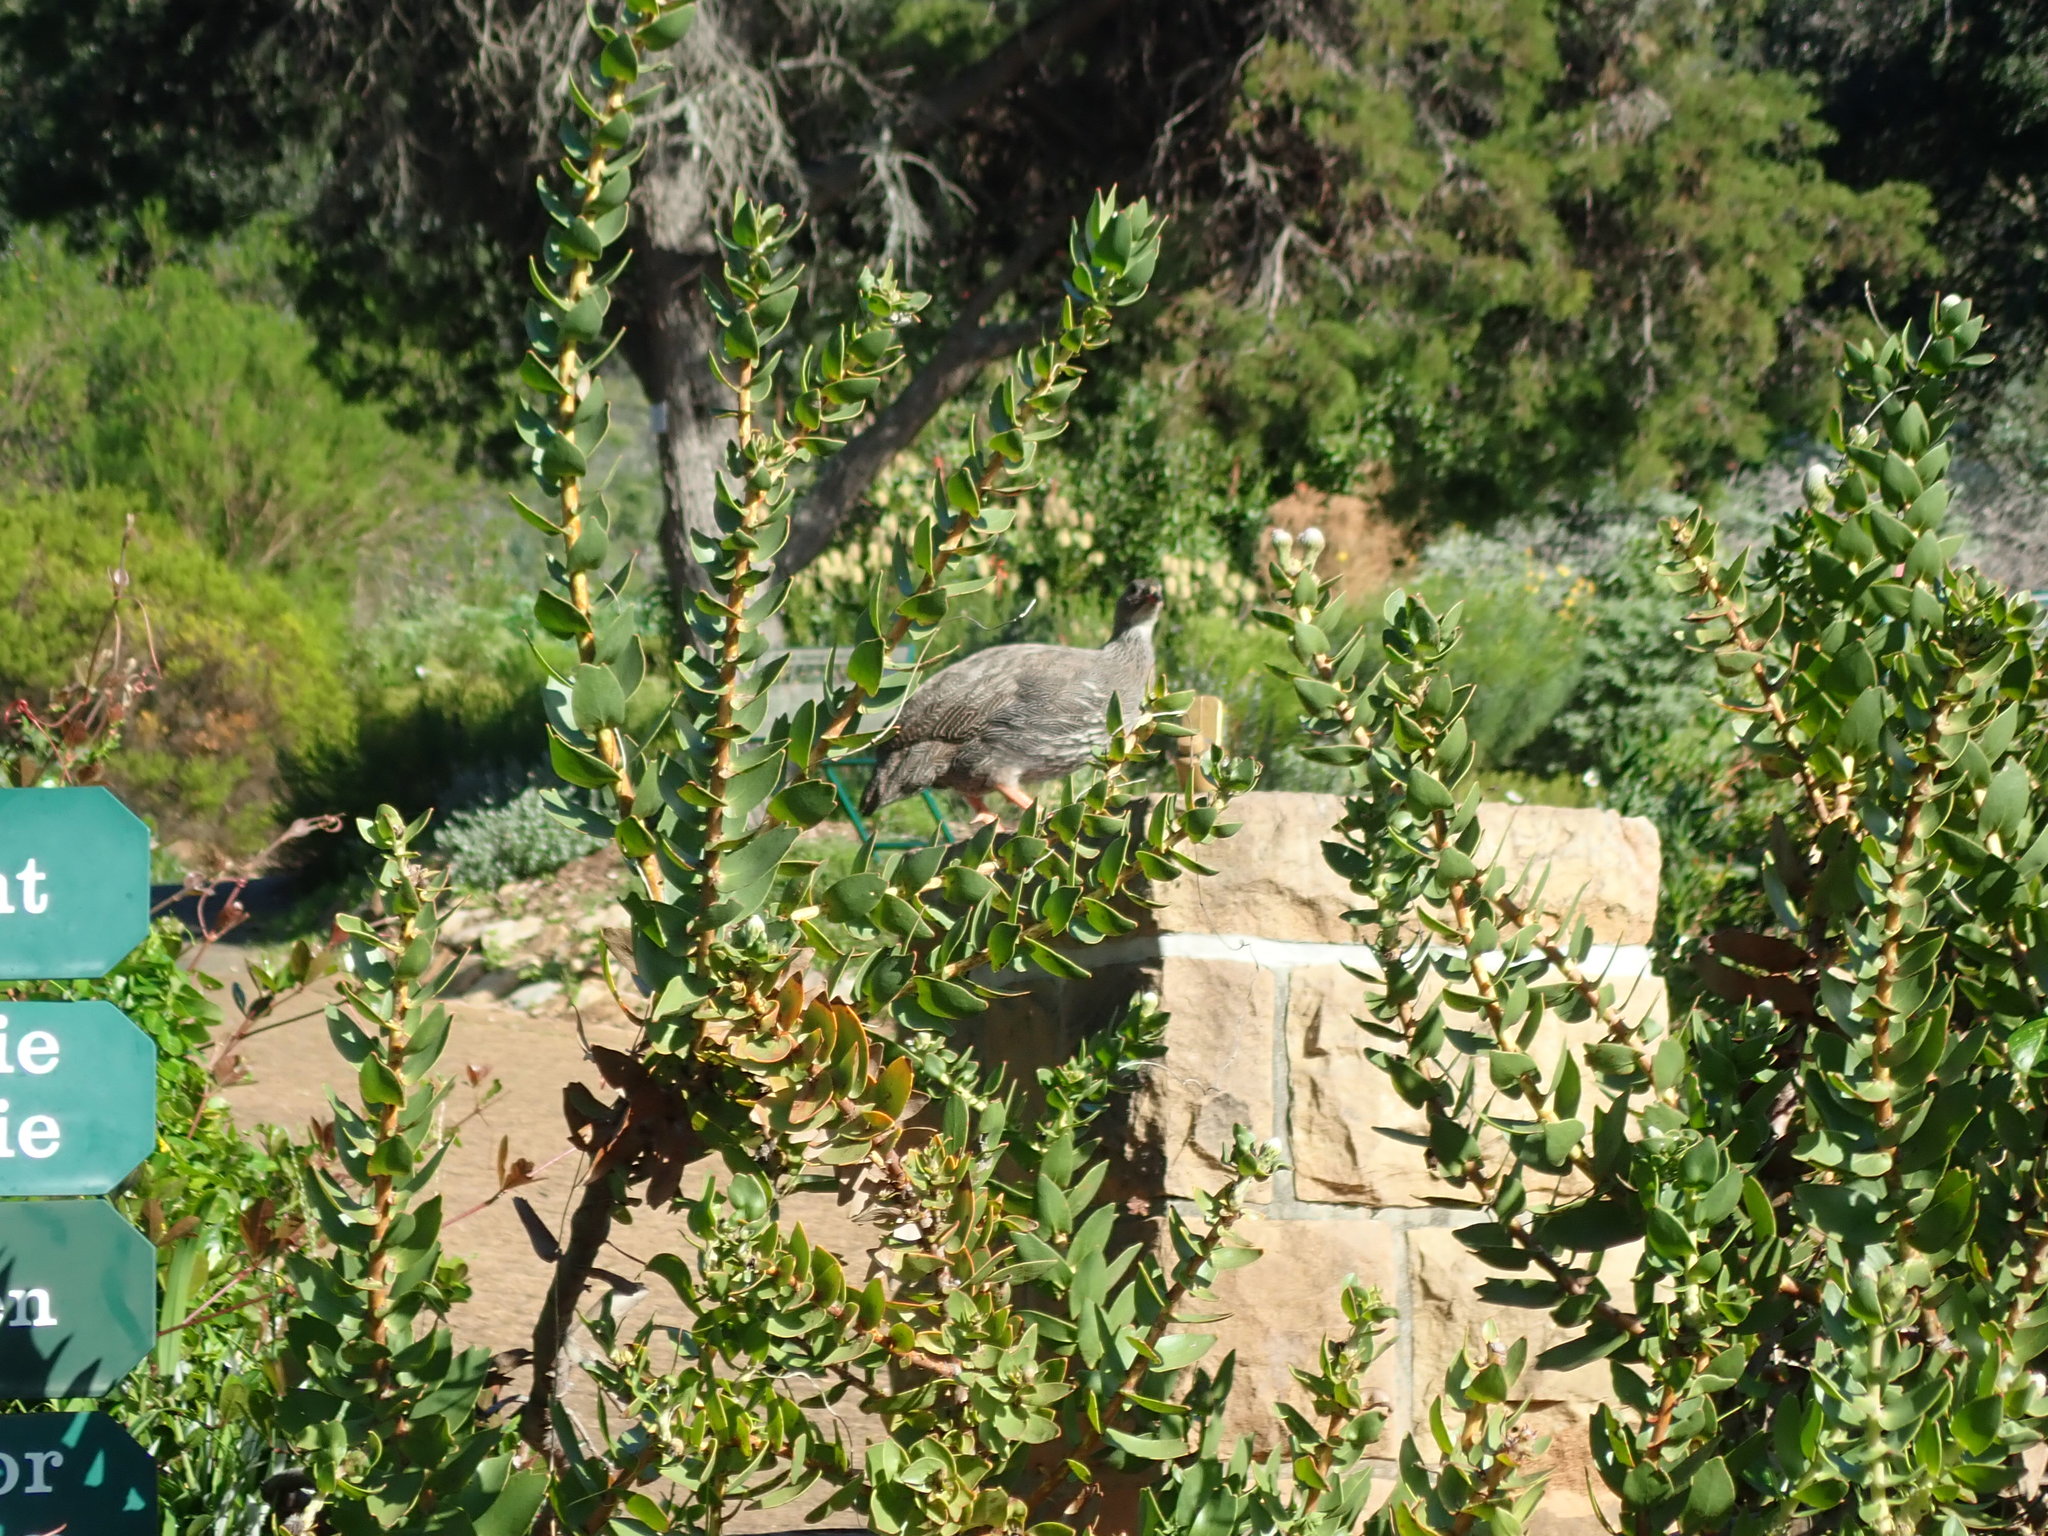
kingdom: Animalia
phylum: Chordata
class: Aves
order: Galliformes
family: Phasianidae
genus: Pternistis
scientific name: Pternistis capensis
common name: Cape spurfowl
